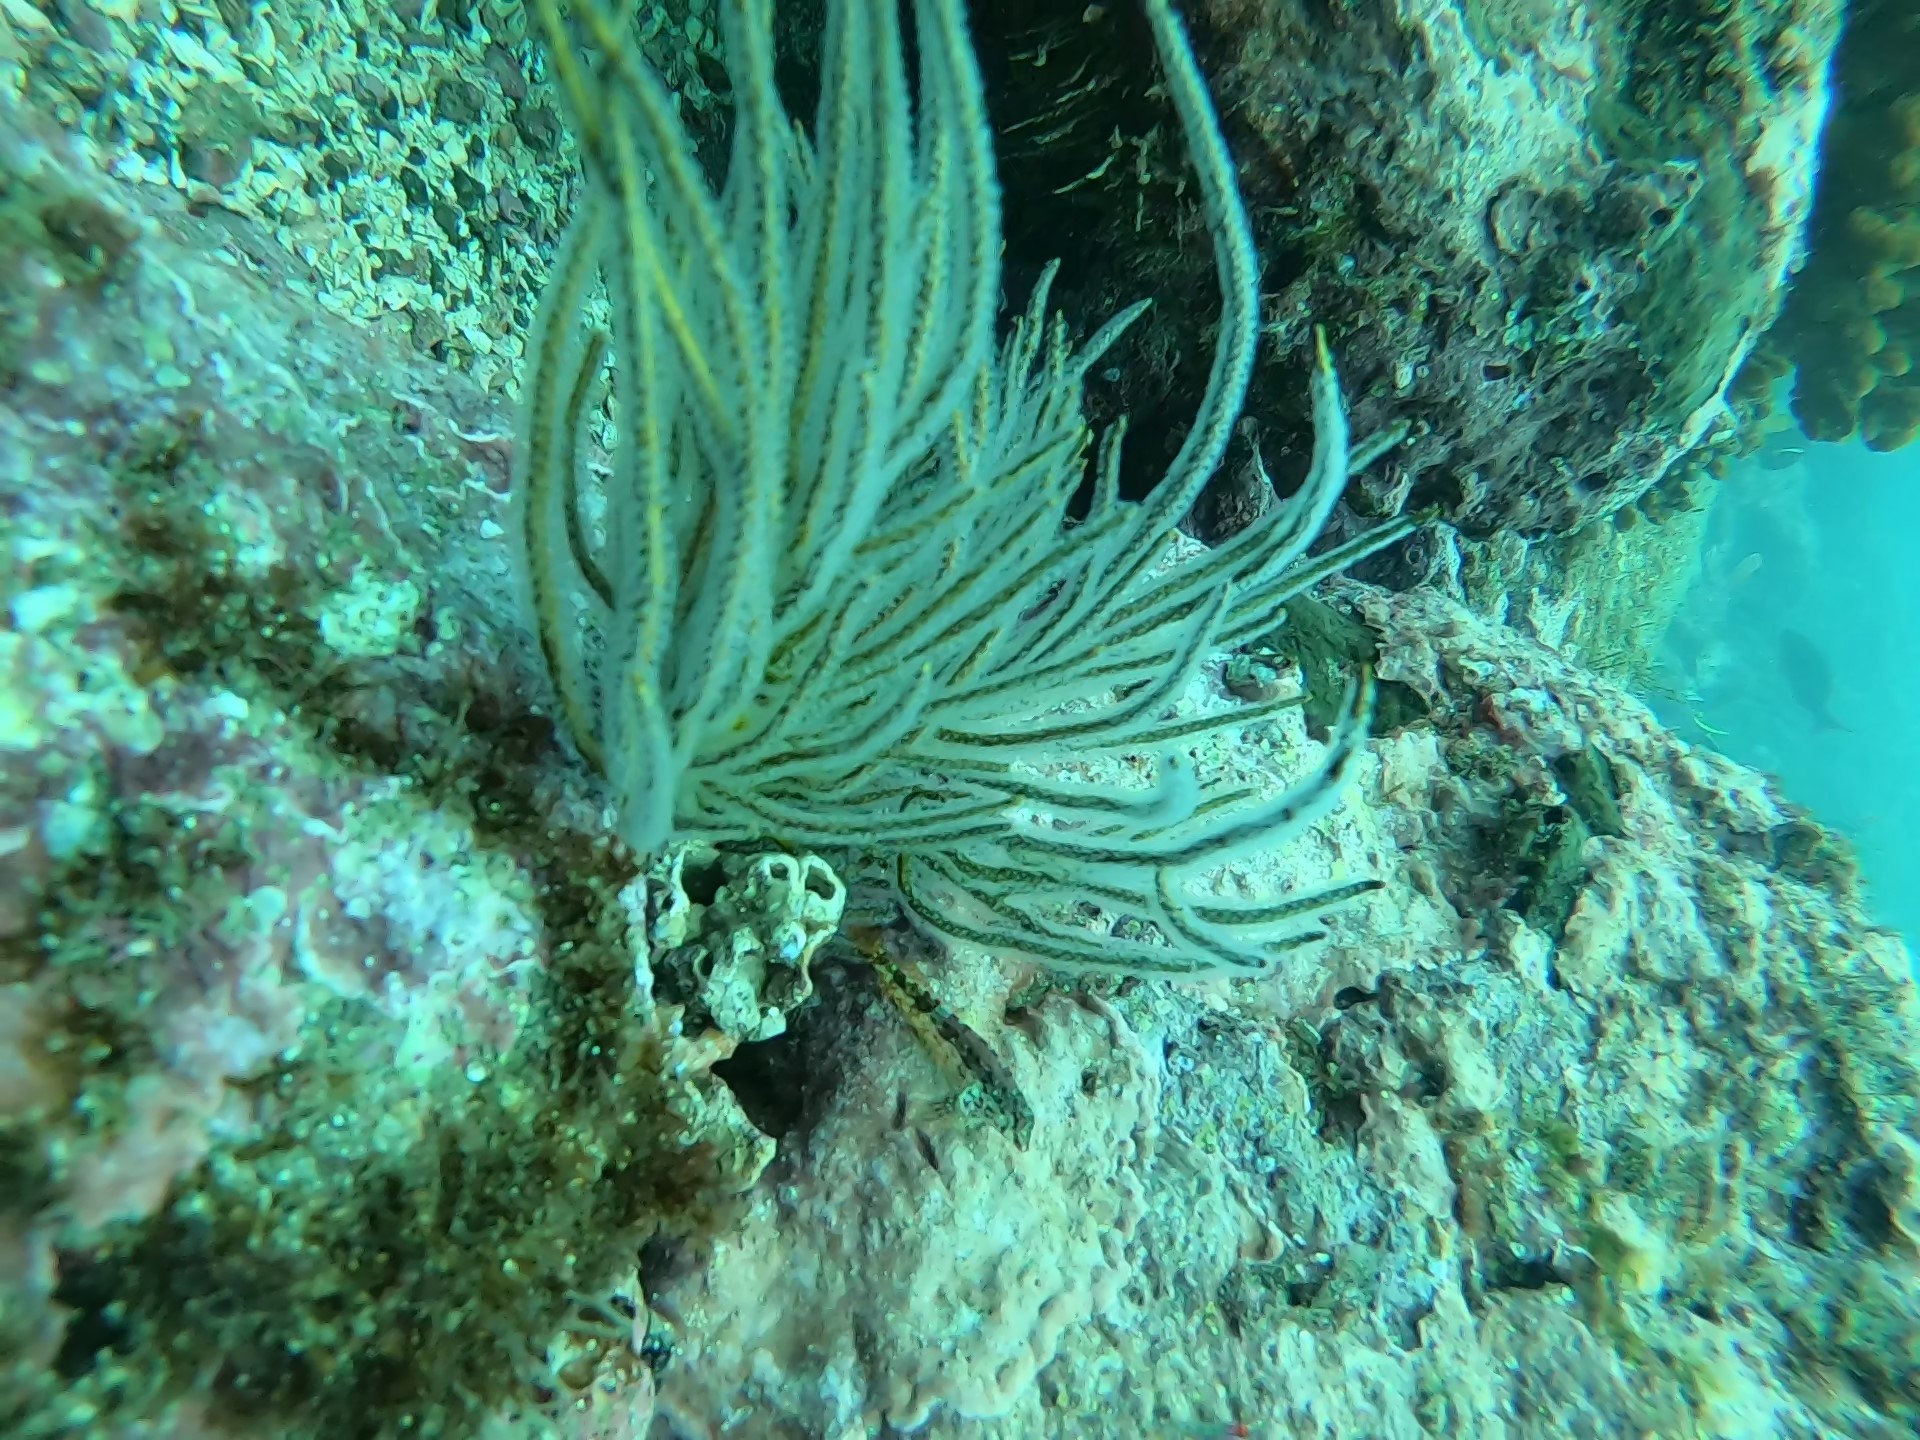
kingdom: Animalia
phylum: Cnidaria
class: Anthozoa
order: Malacalcyonacea
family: Gorgoniidae
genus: Leptogorgia
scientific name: Leptogorgia alba
